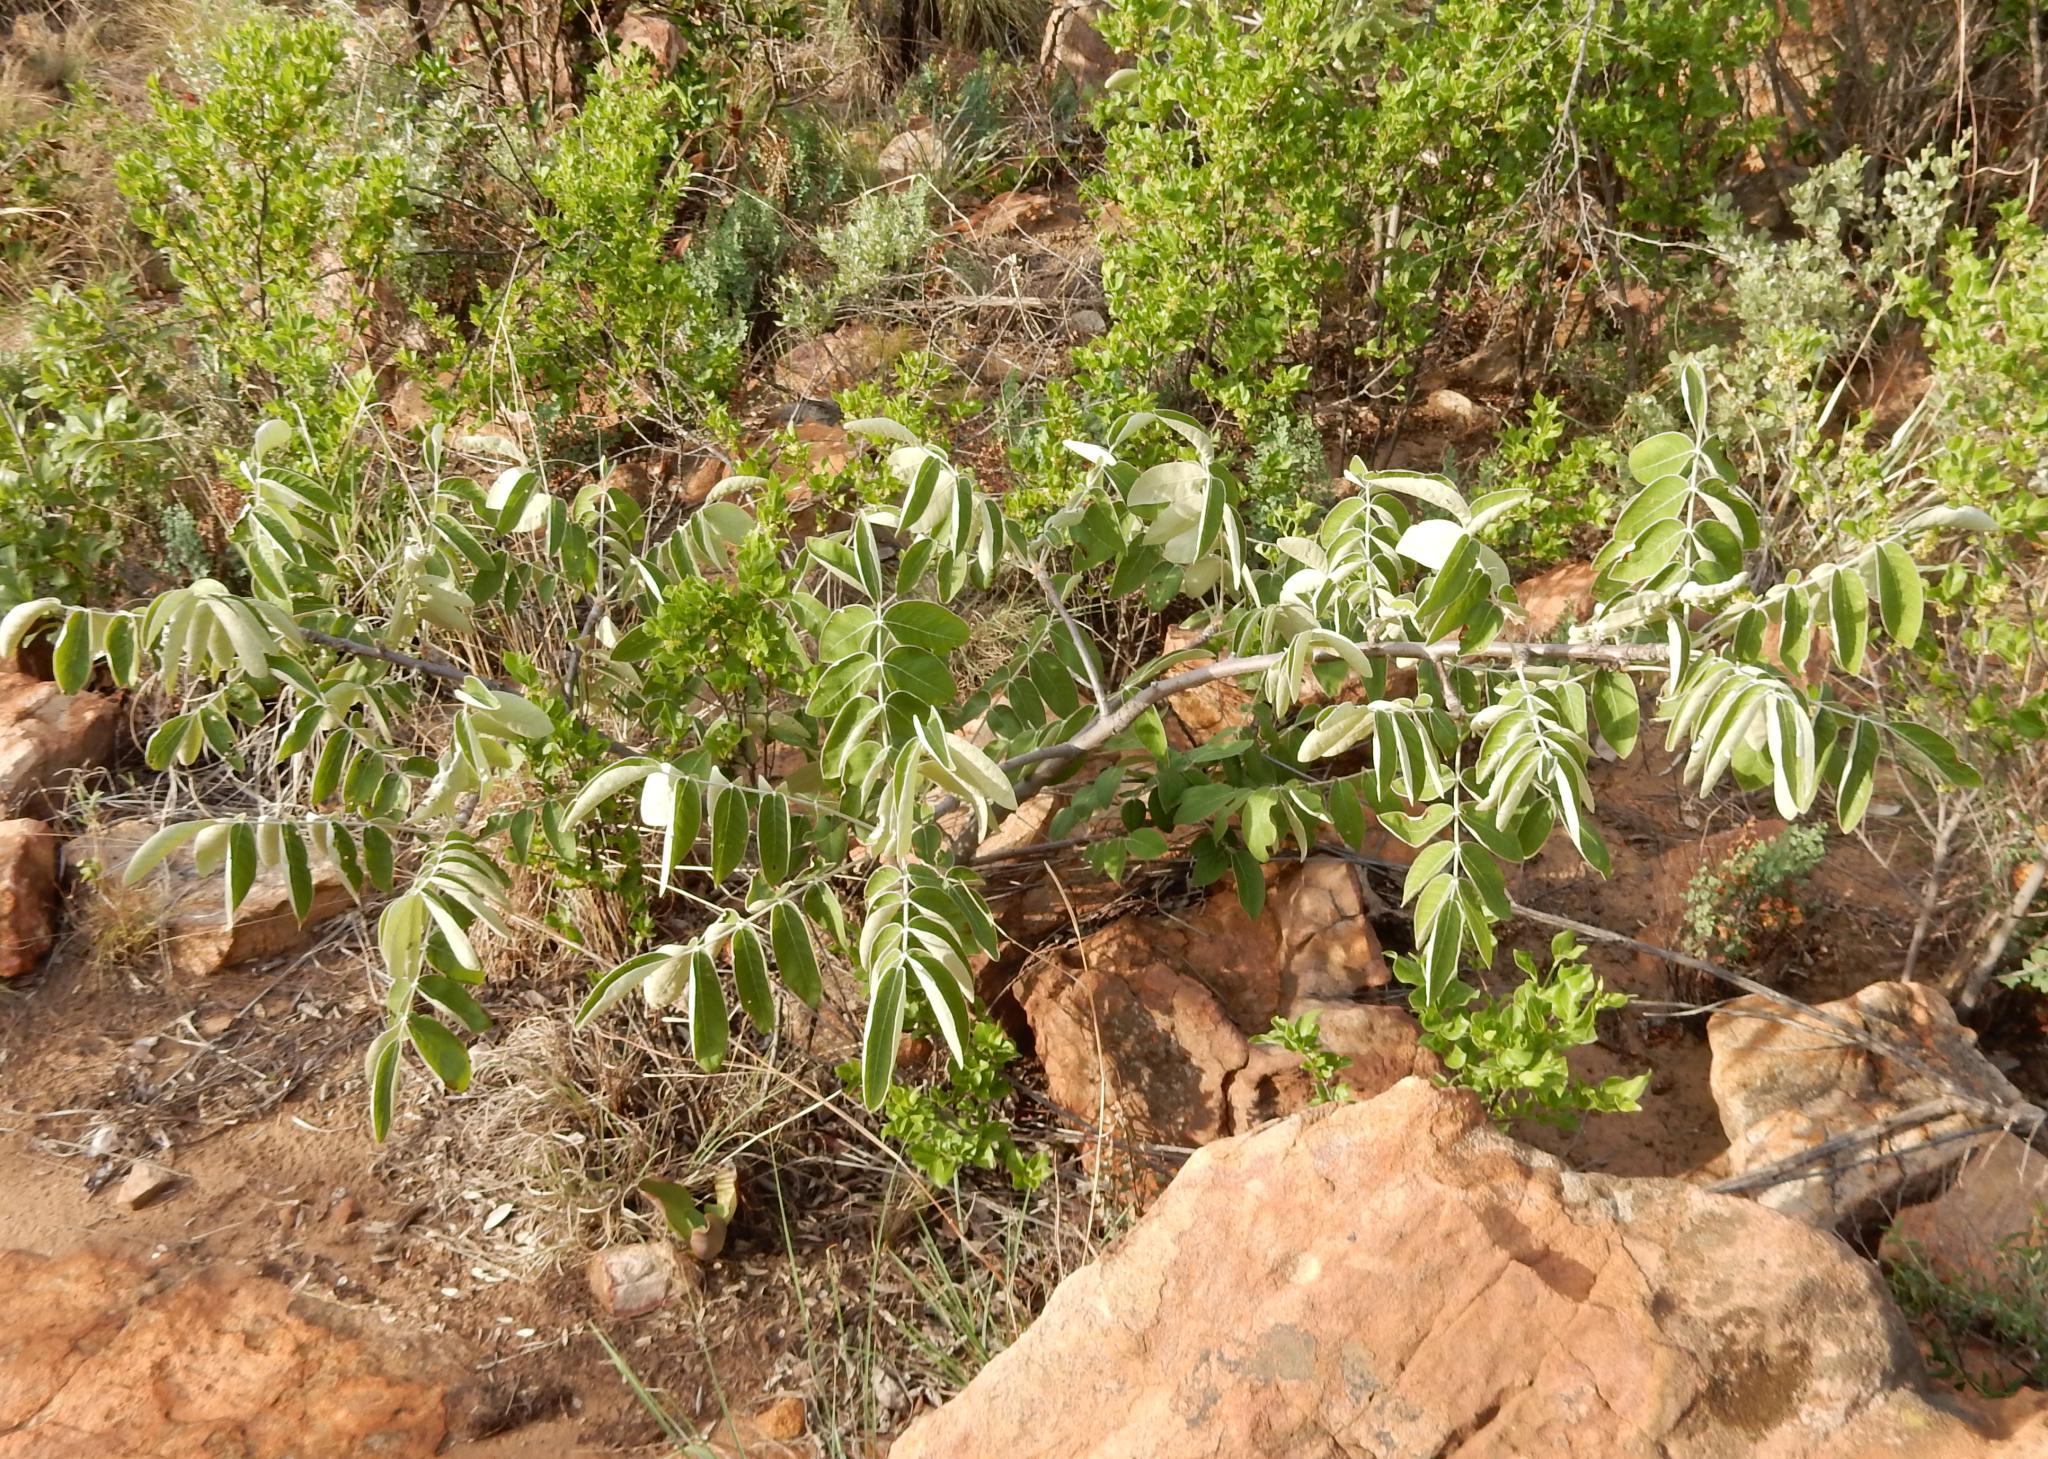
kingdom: Plantae
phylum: Tracheophyta
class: Magnoliopsida
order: Sapindales
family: Anacardiaceae
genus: Lannea
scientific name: Lannea discolor
